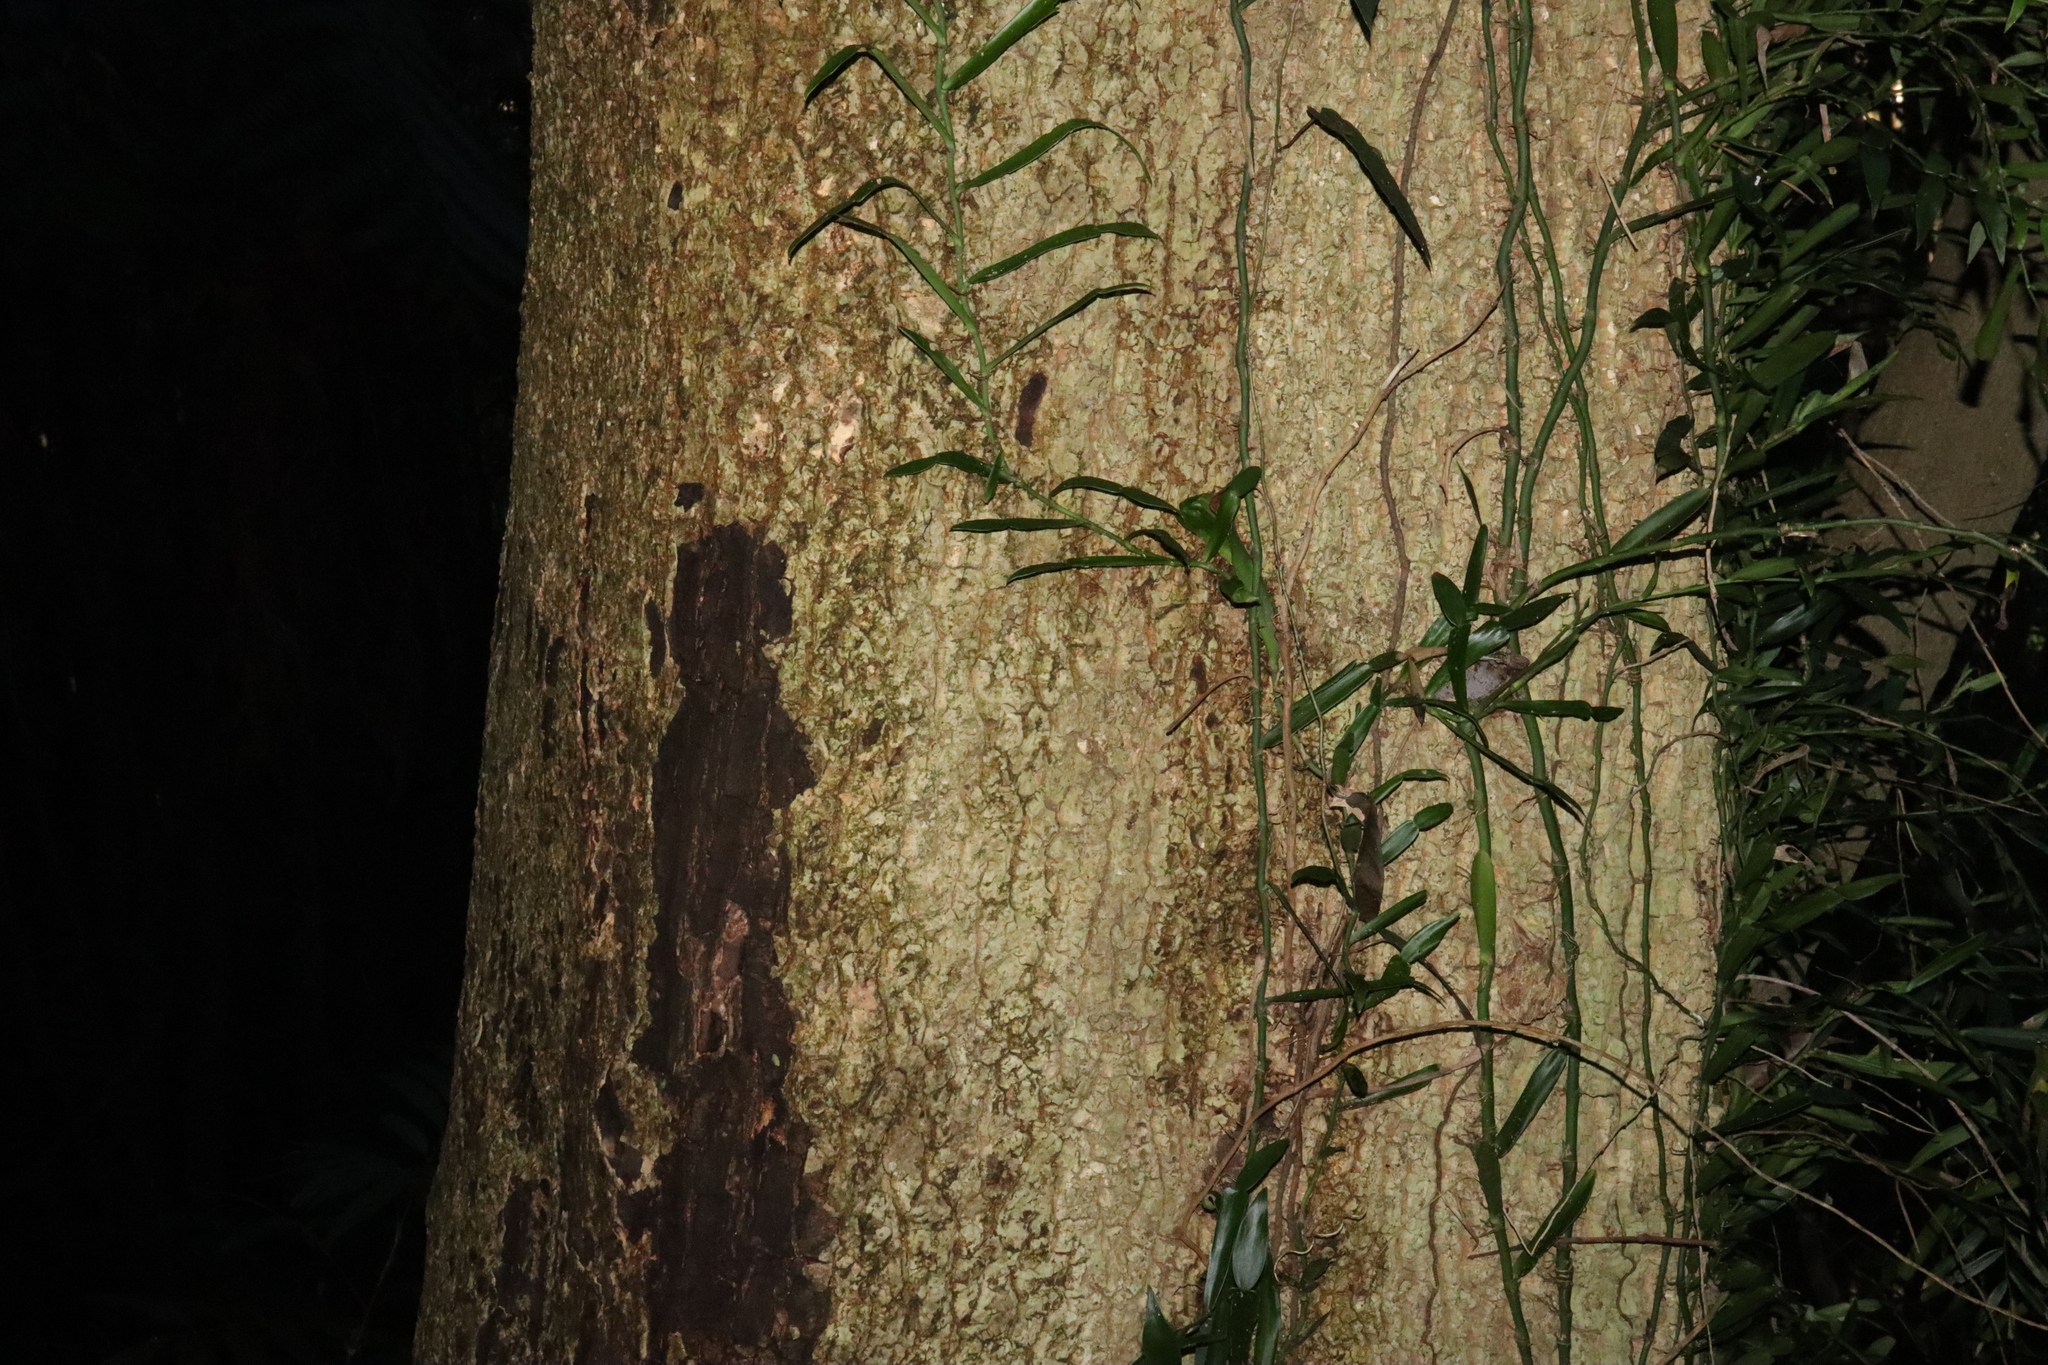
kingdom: Plantae
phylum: Tracheophyta
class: Liliopsida
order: Alismatales
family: Araceae
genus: Pothos
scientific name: Pothos longipes
